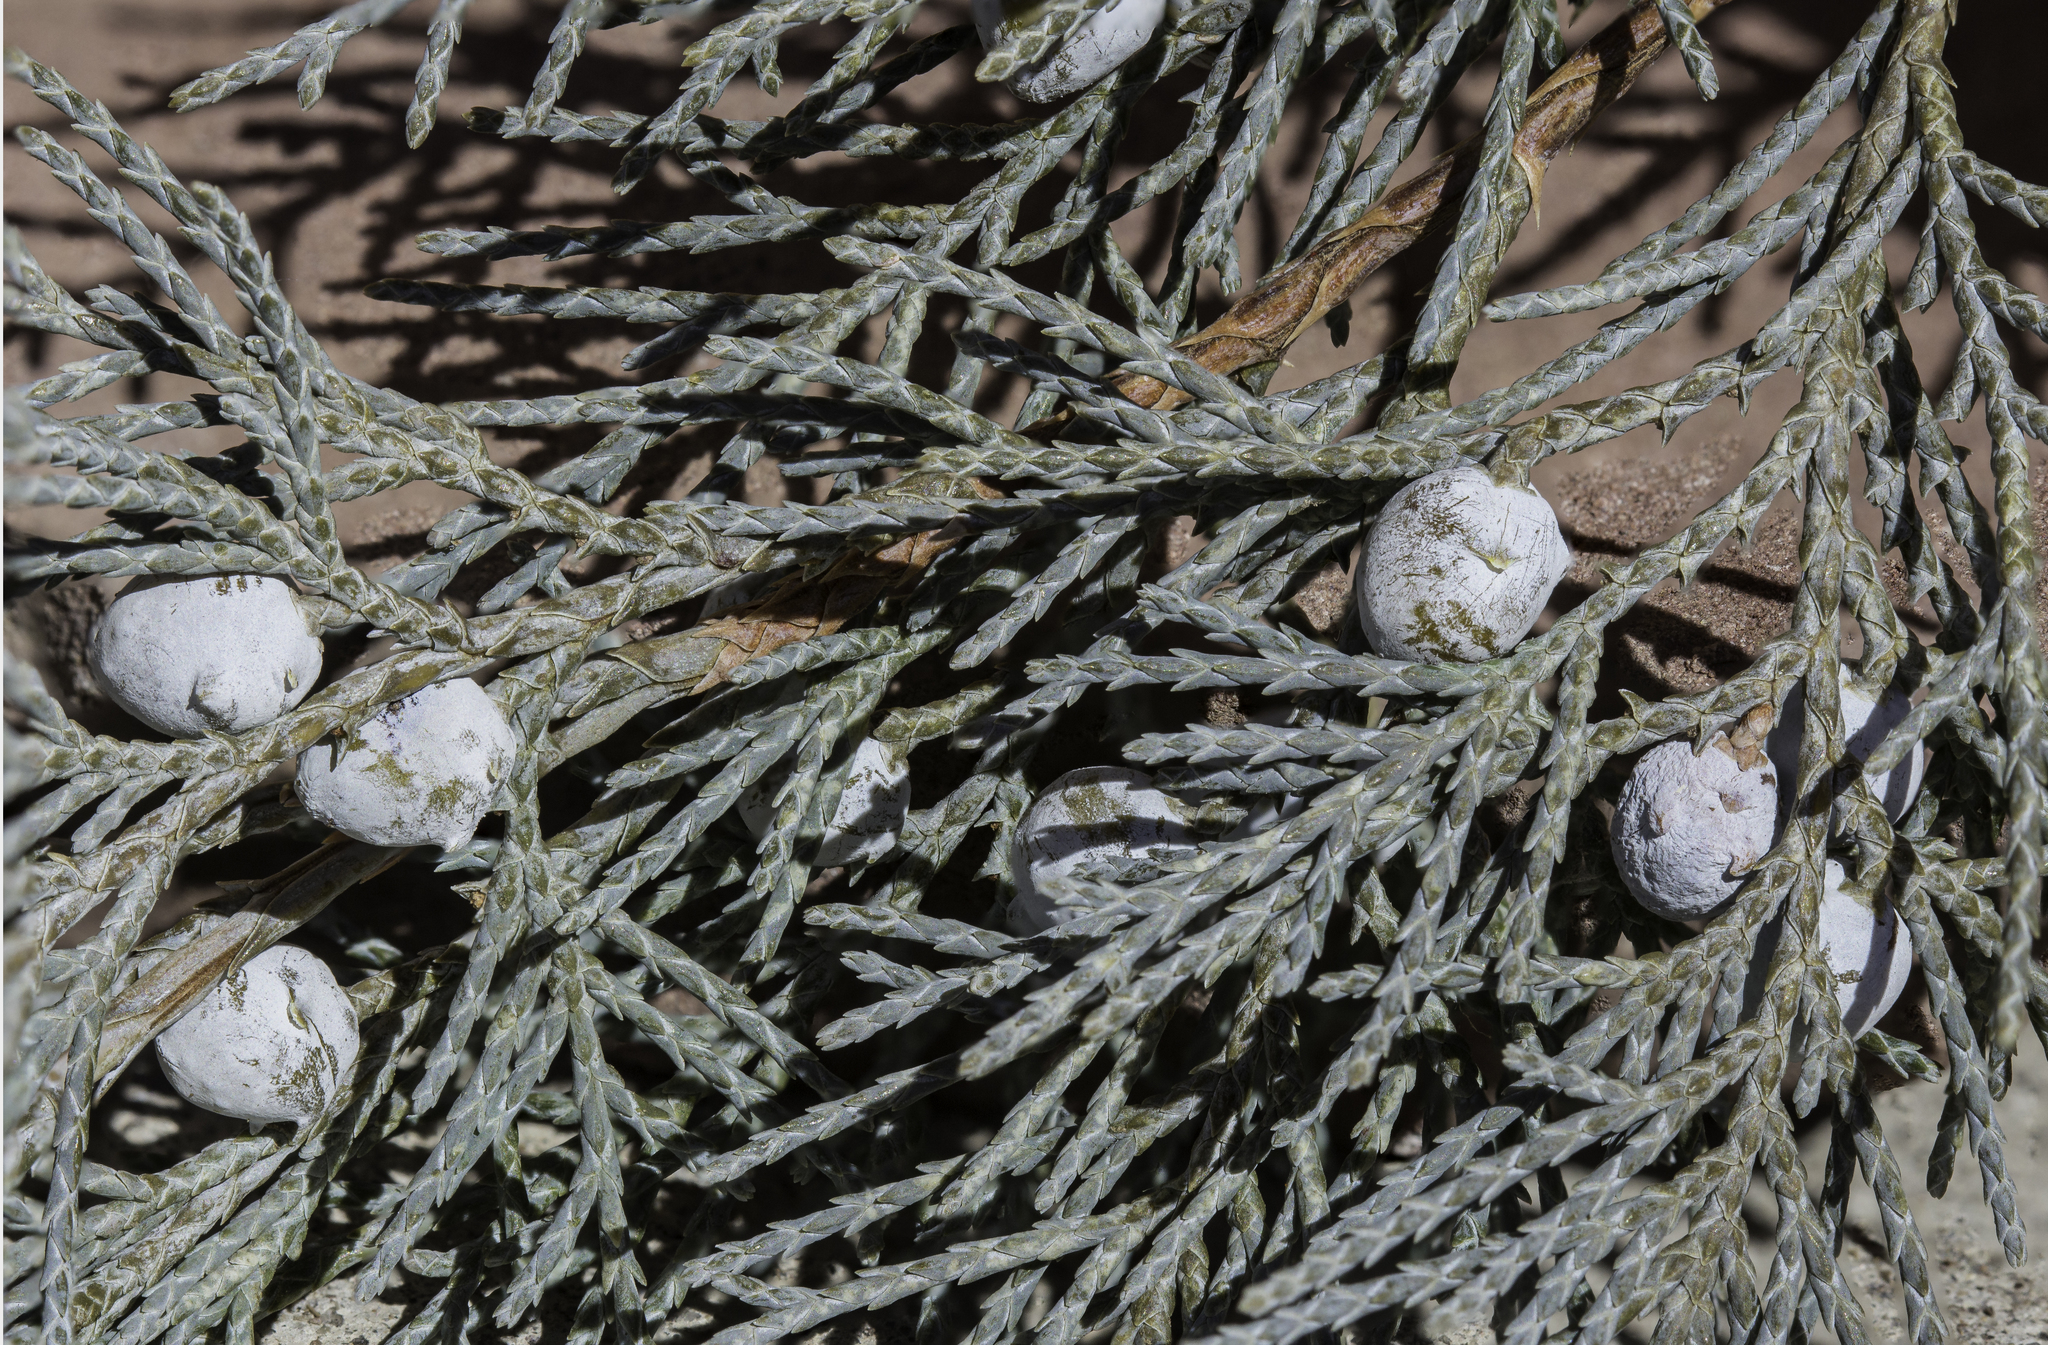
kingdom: Plantae
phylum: Tracheophyta
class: Pinopsida
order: Pinales
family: Cupressaceae
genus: Juniperus
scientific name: Juniperus scopulorum
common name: Rocky mountain juniper
